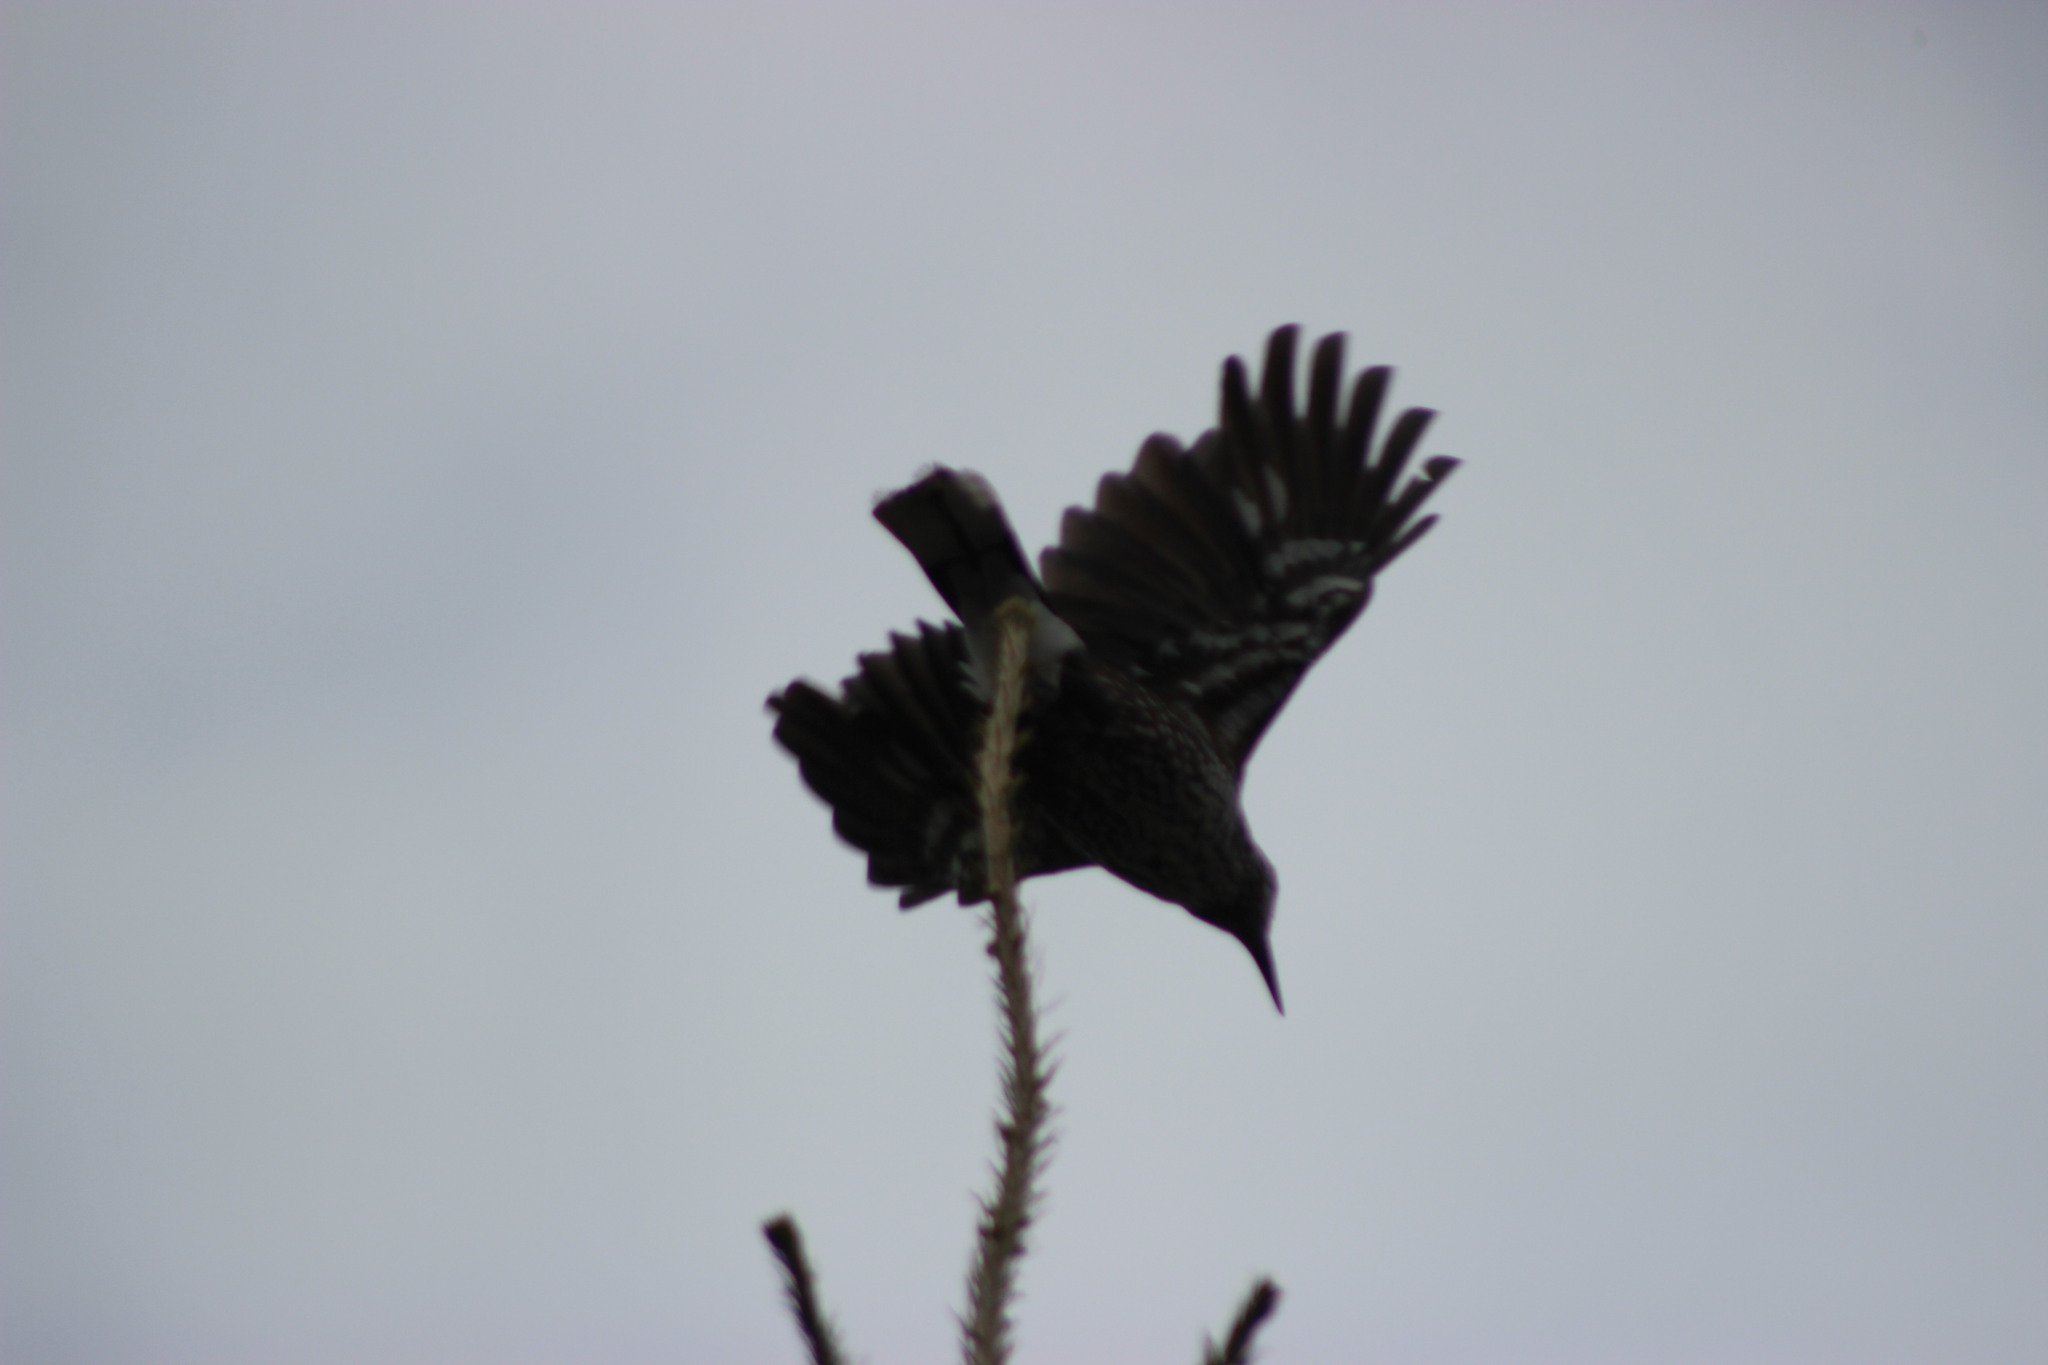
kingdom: Animalia
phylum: Chordata
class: Aves
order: Passeriformes
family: Corvidae
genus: Nucifraga
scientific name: Nucifraga caryocatactes
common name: Spotted nutcracker
